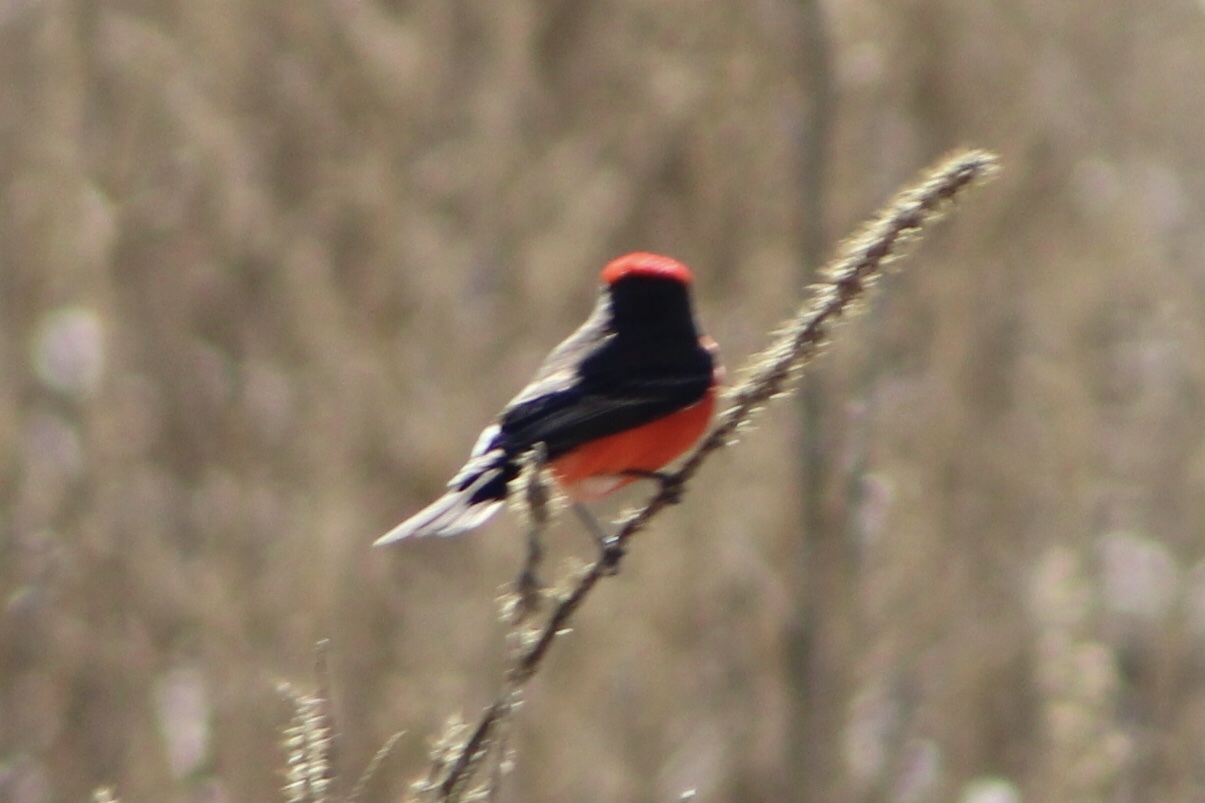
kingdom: Animalia
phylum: Chordata
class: Aves
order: Passeriformes
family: Tyrannidae
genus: Pyrocephalus
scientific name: Pyrocephalus rubinus
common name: Vermilion flycatcher
